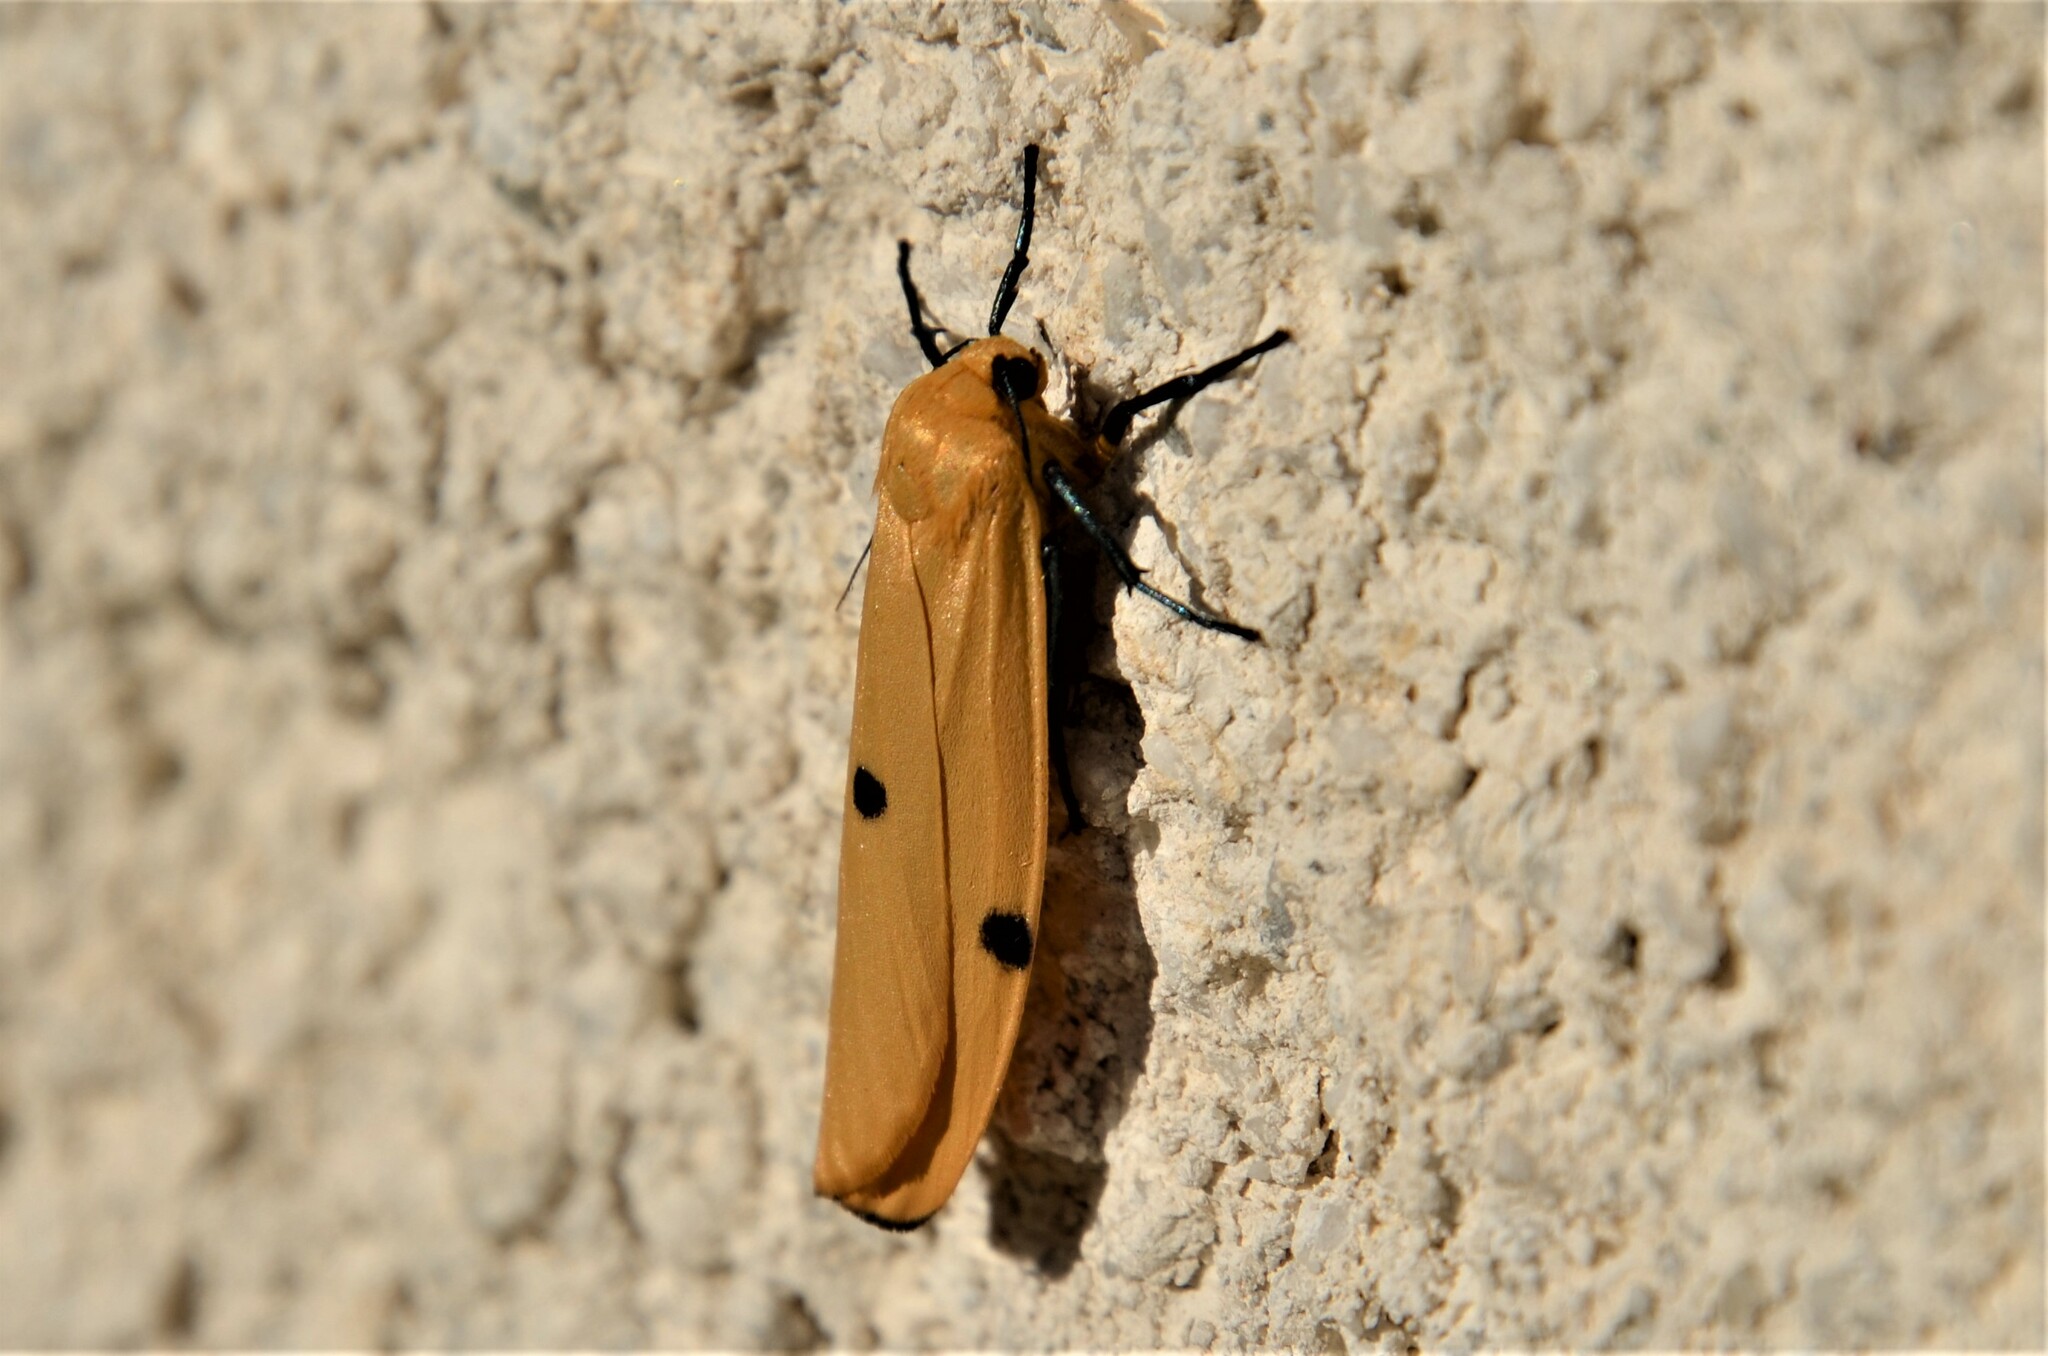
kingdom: Animalia
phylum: Arthropoda
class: Insecta
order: Lepidoptera
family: Erebidae
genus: Lithosia
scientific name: Lithosia quadra
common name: Four-spotted footman
